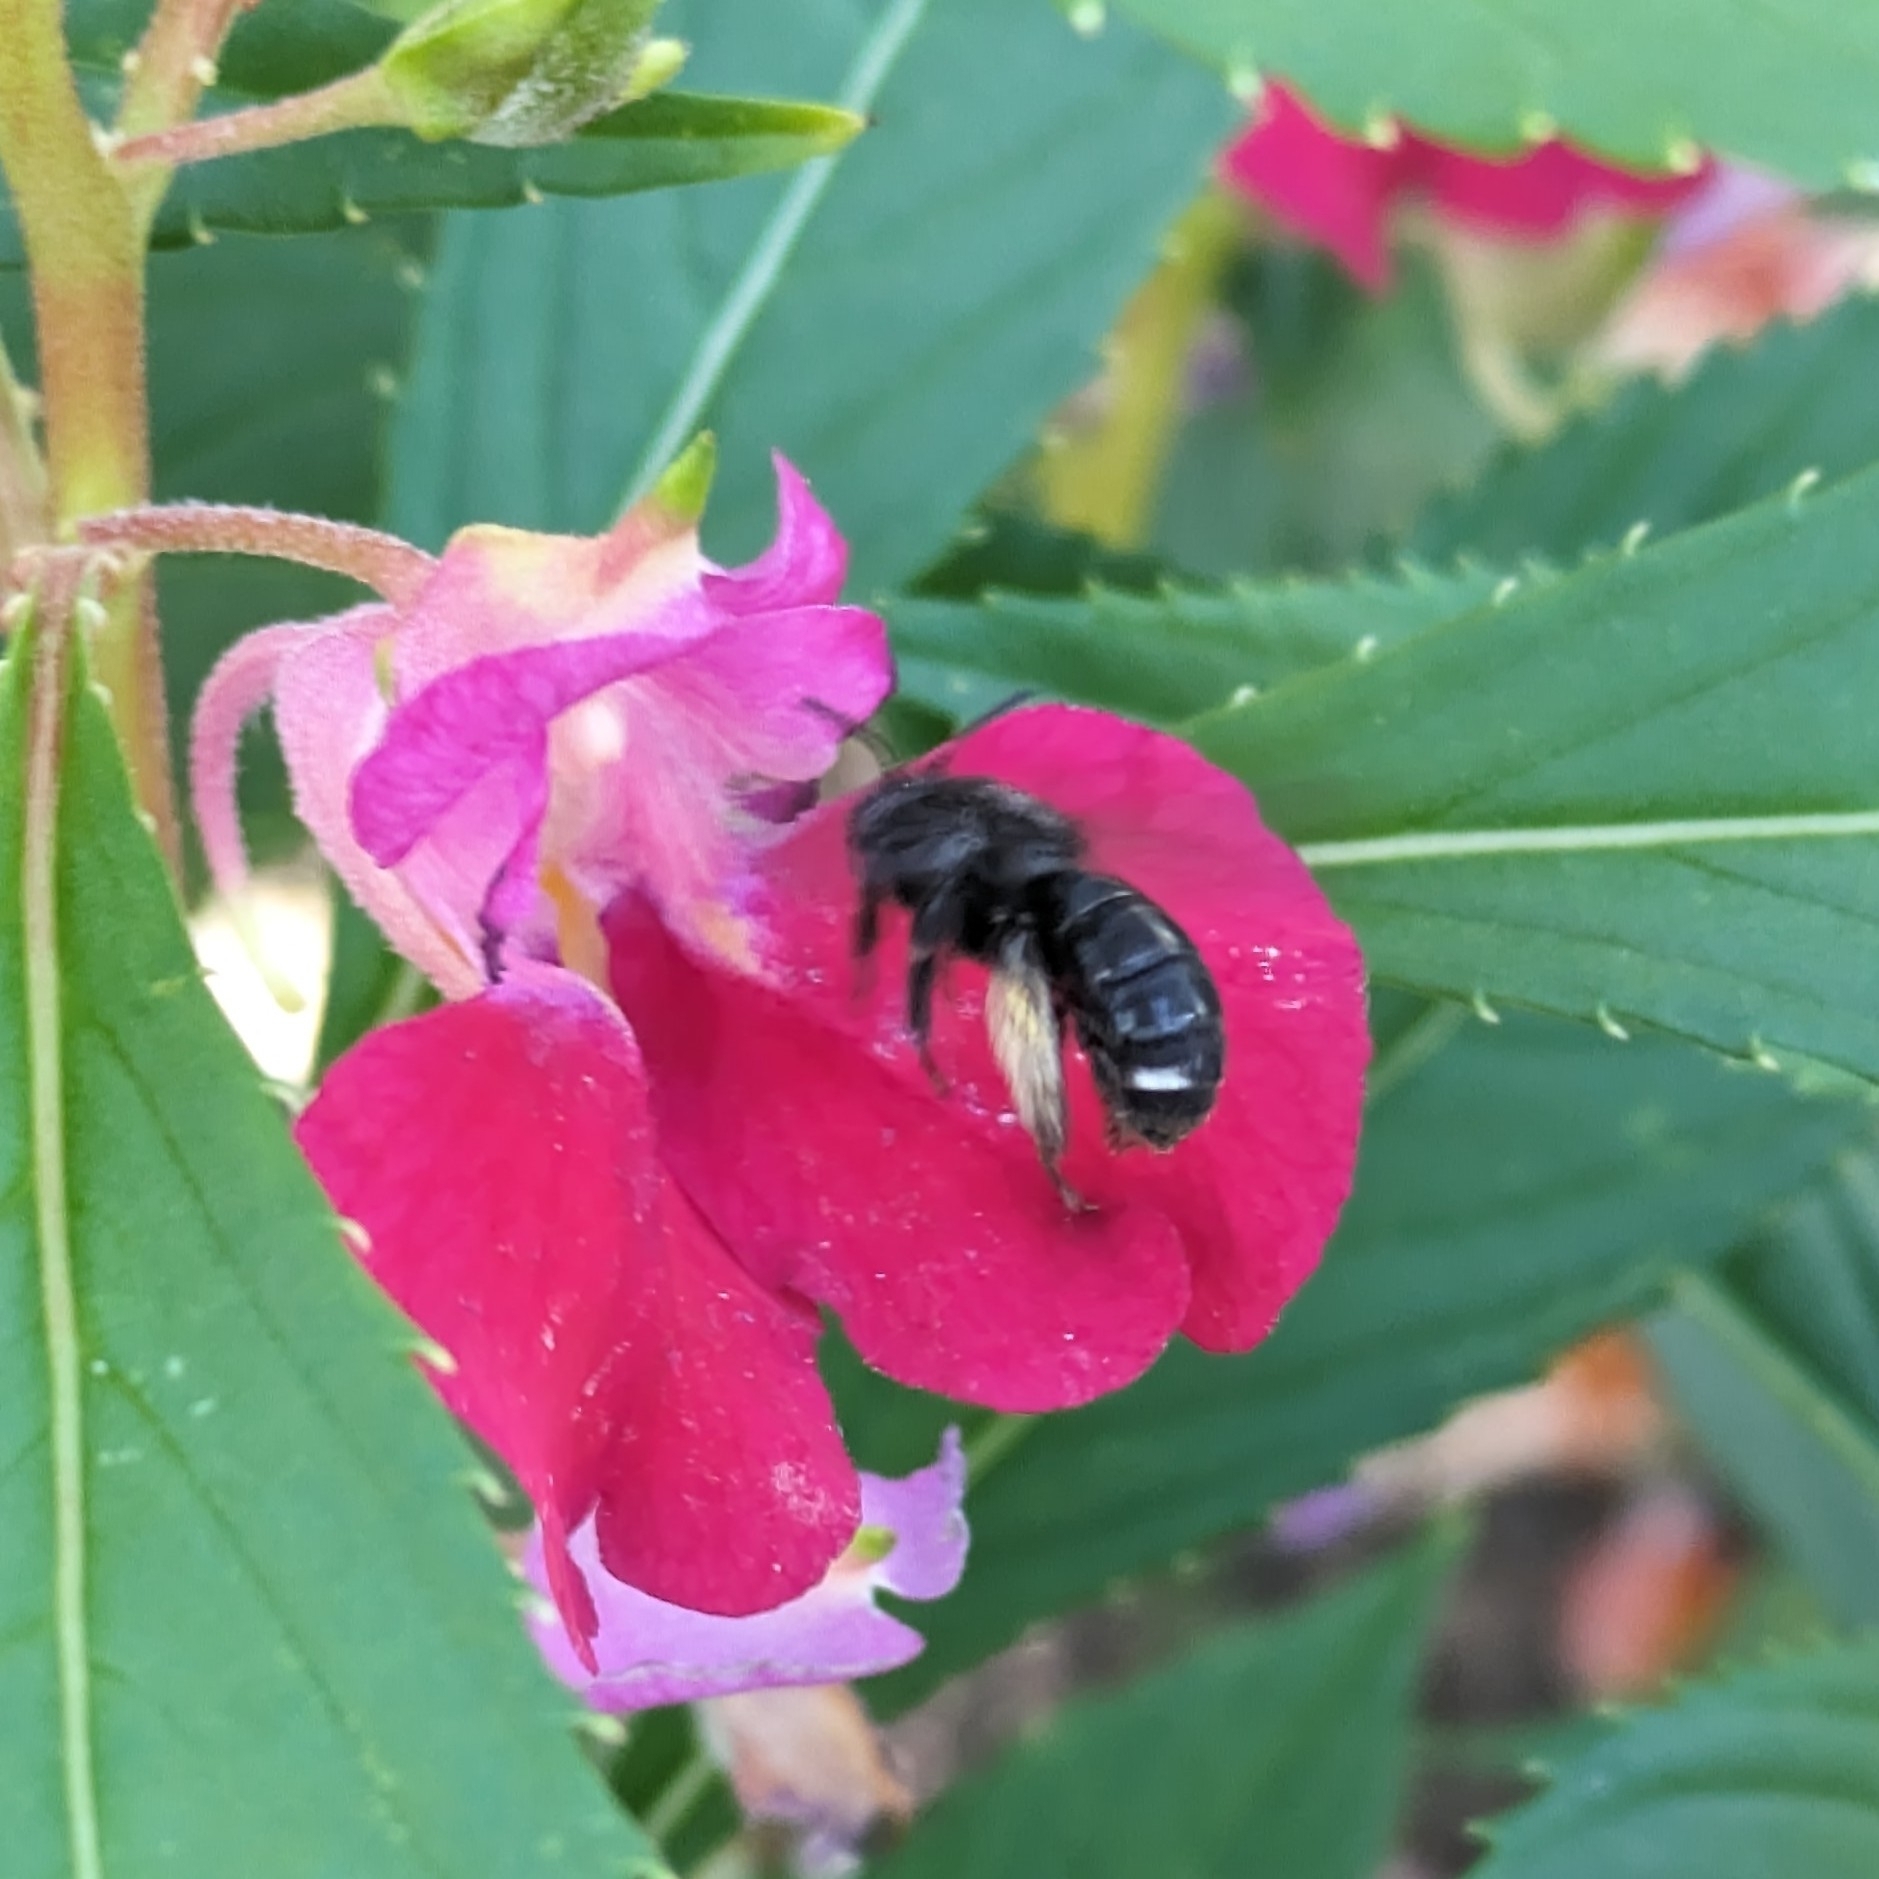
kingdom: Animalia
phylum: Arthropoda
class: Insecta
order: Hymenoptera
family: Apidae
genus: Melissodes
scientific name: Melissodes bimaculatus
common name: Two-spotted long-horned bee
